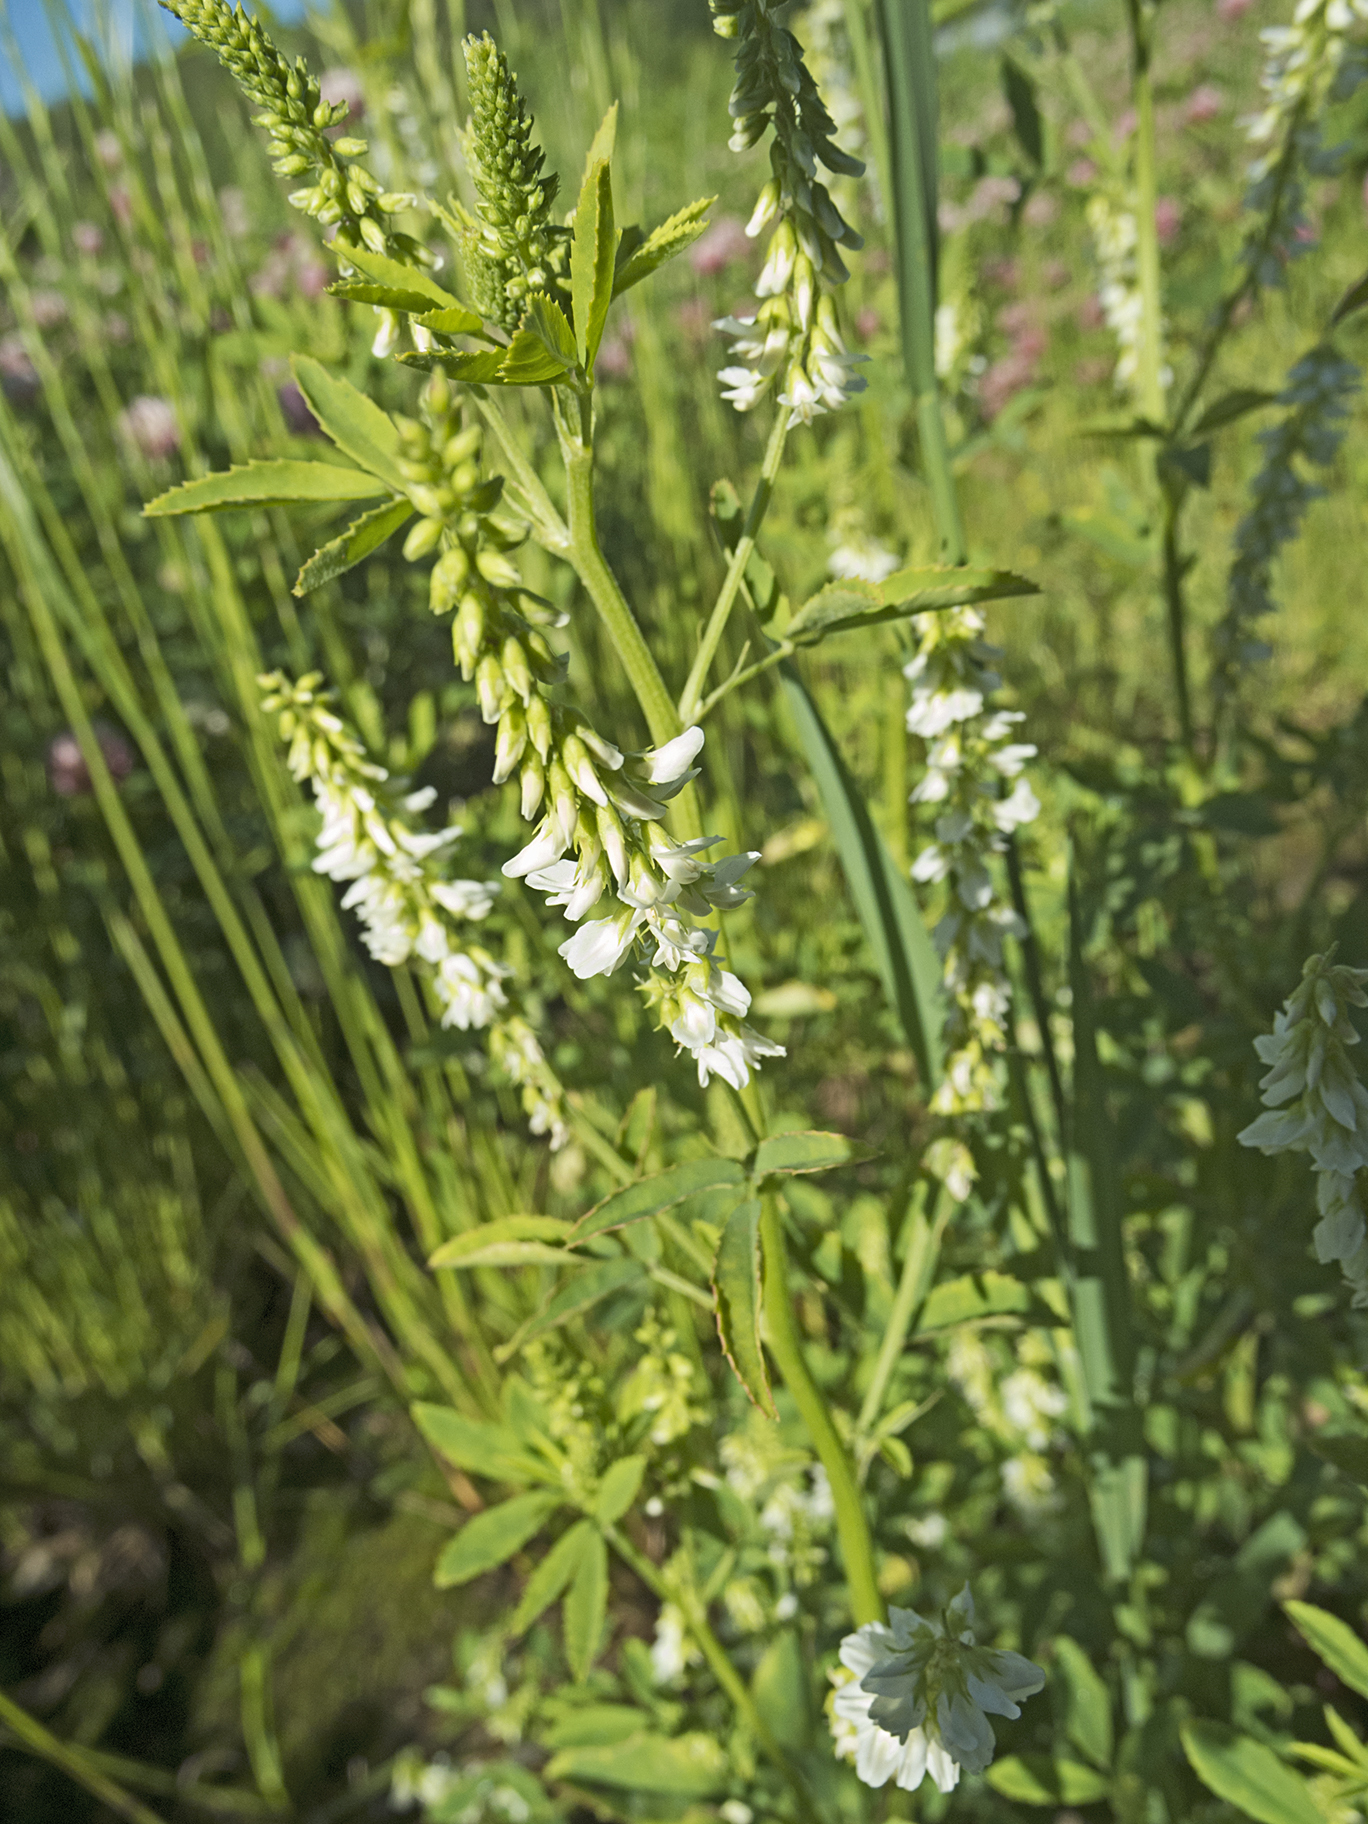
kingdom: Plantae
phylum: Tracheophyta
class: Magnoliopsida
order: Fabales
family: Fabaceae
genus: Melilotus
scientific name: Melilotus albus
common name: White melilot
